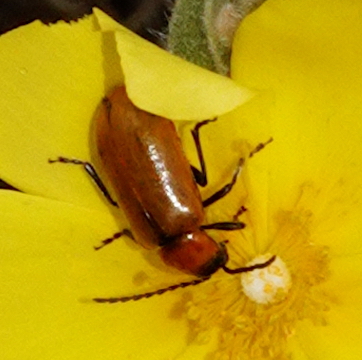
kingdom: Animalia
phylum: Arthropoda
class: Insecta
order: Coleoptera
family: Chrysomelidae
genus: Exosoma
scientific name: Exosoma lusitanicum
